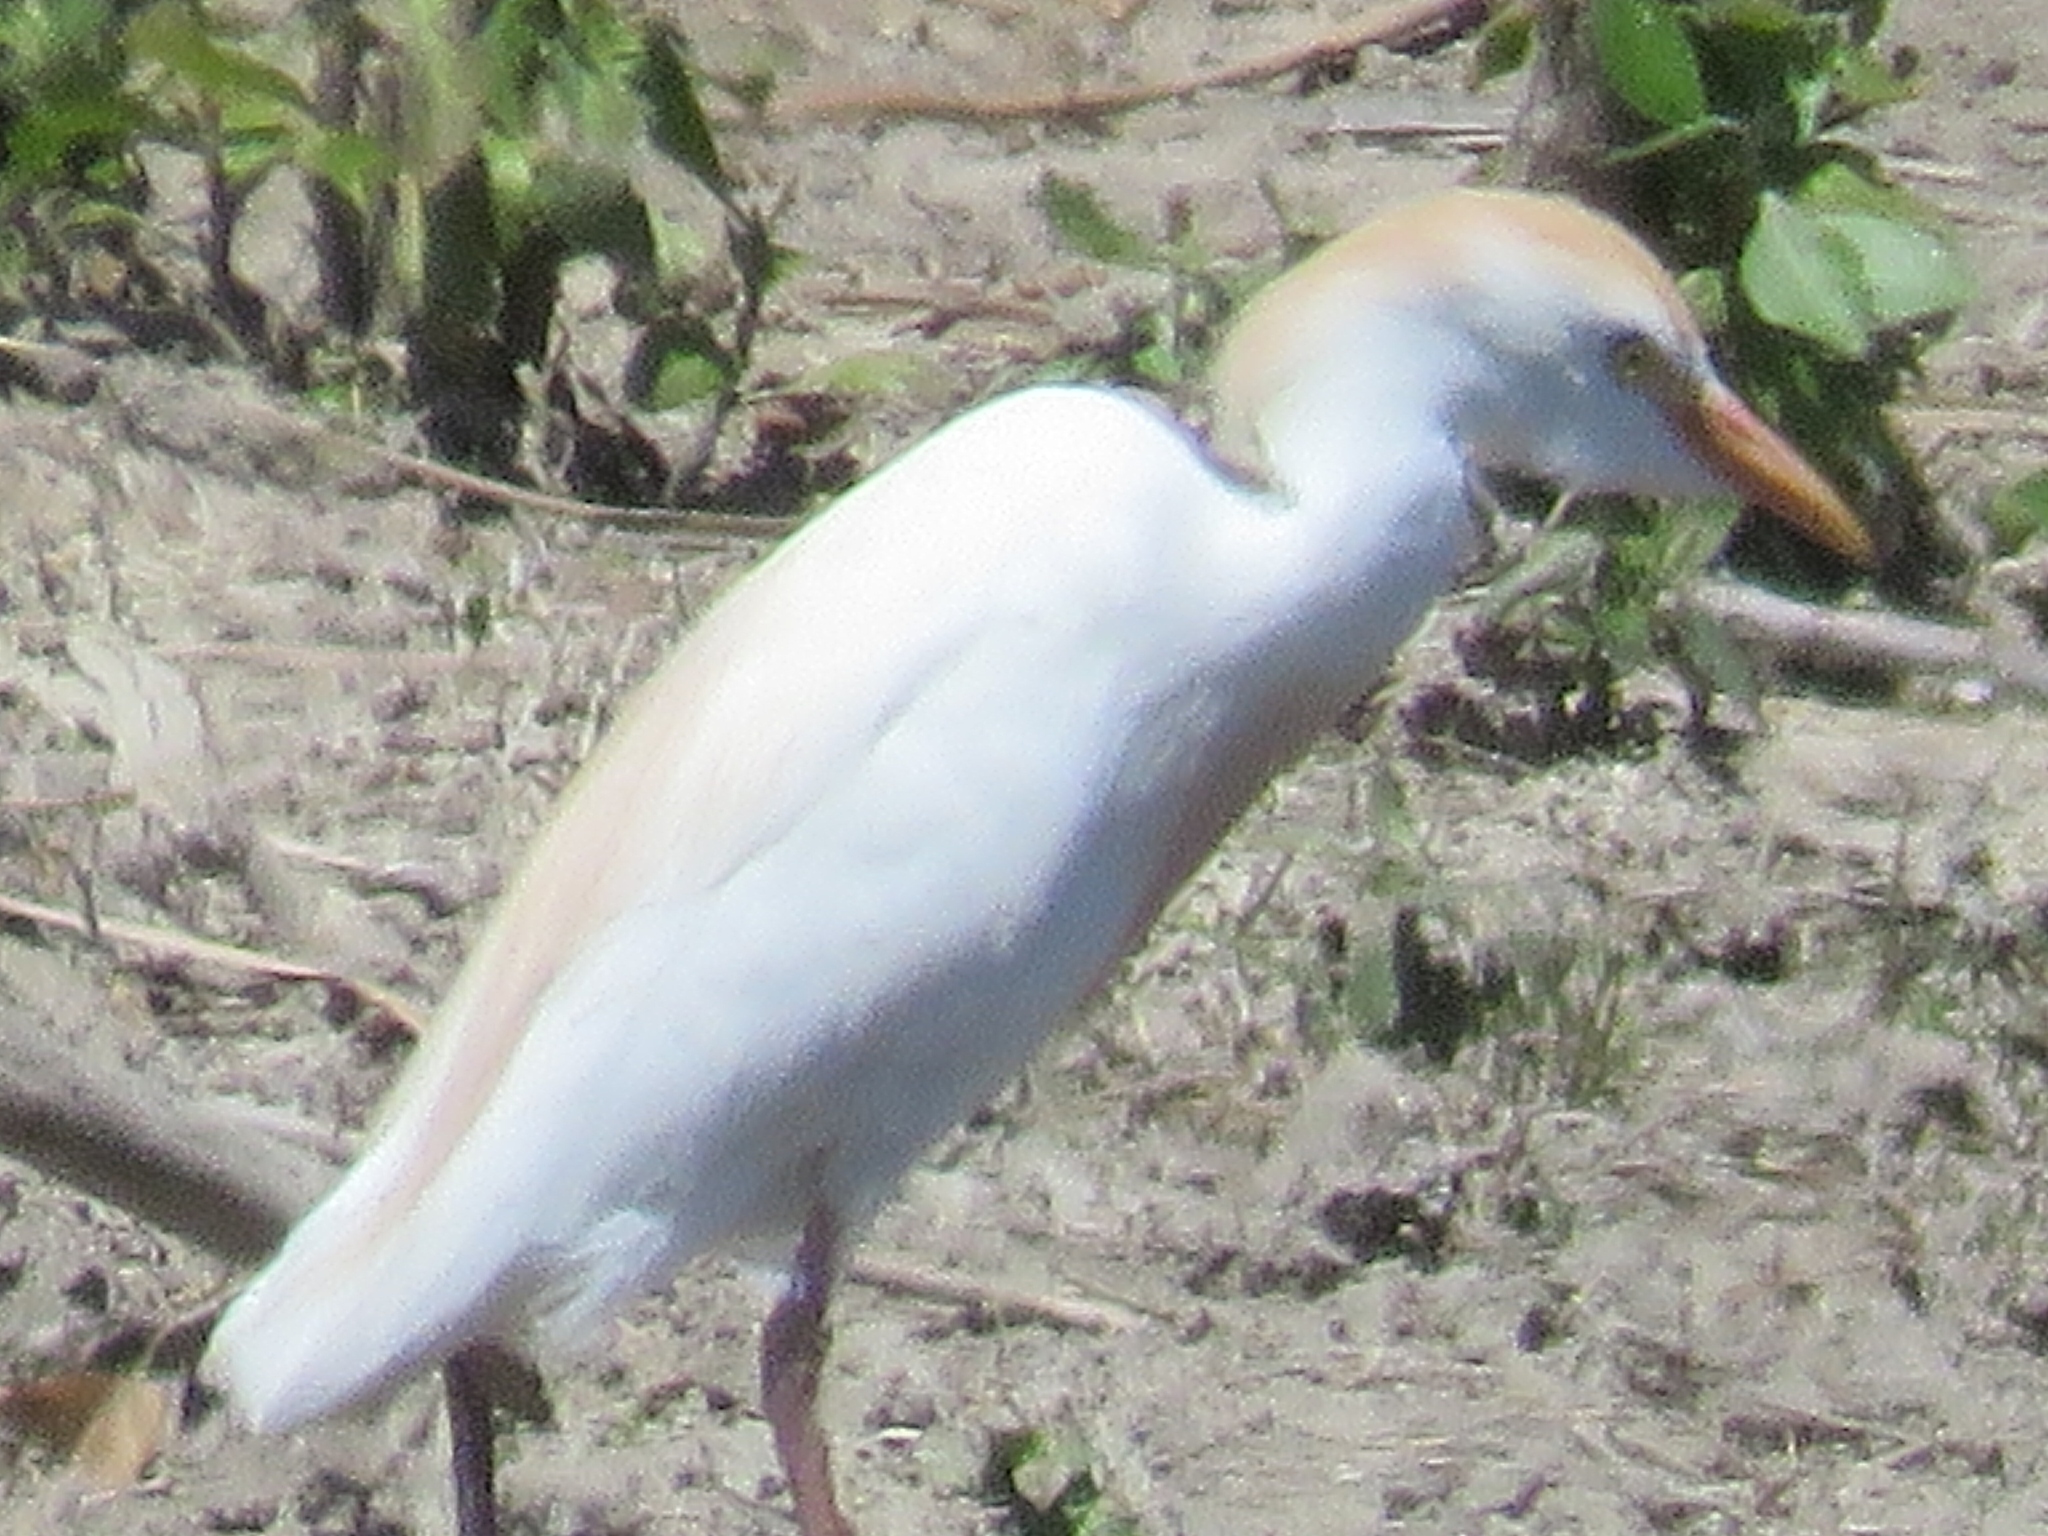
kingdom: Animalia
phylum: Chordata
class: Aves
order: Pelecaniformes
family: Ardeidae
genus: Bubulcus
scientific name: Bubulcus ibis
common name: Cattle egret
